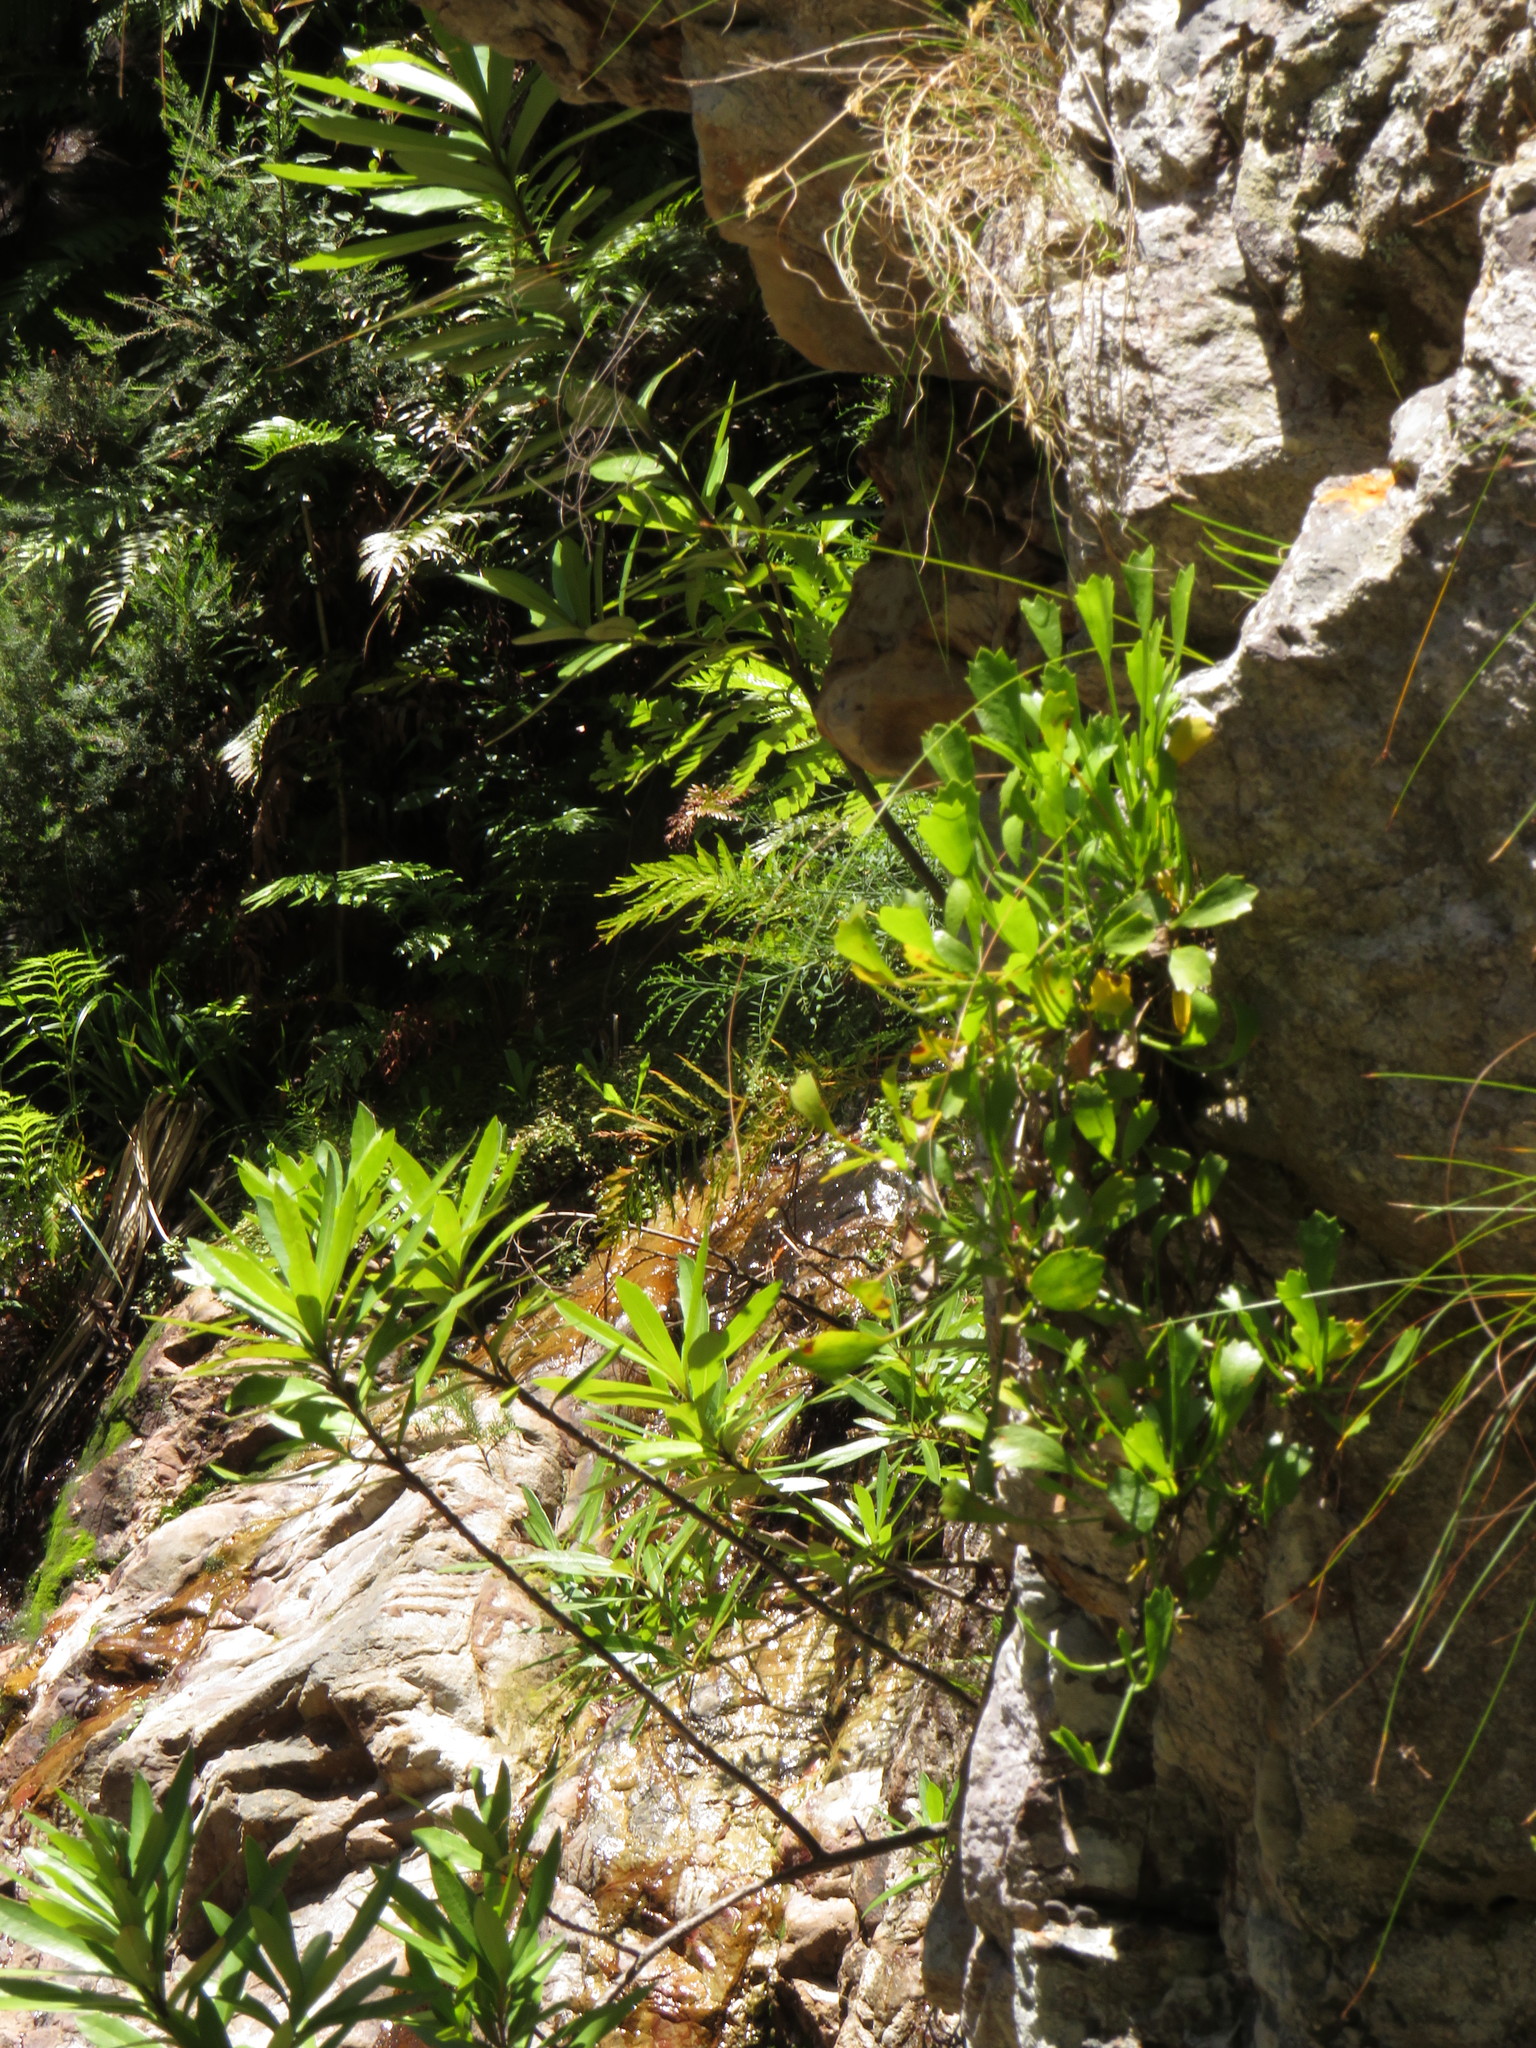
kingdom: Plantae
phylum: Tracheophyta
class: Magnoliopsida
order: Apiales
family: Apiaceae
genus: Centella
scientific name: Centella triloba
